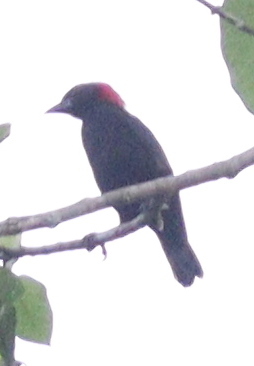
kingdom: Animalia
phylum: Chordata
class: Aves
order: Passeriformes
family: Ploceidae
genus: Malimbus
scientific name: Malimbus rubricollis
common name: Red-headed malimbe
